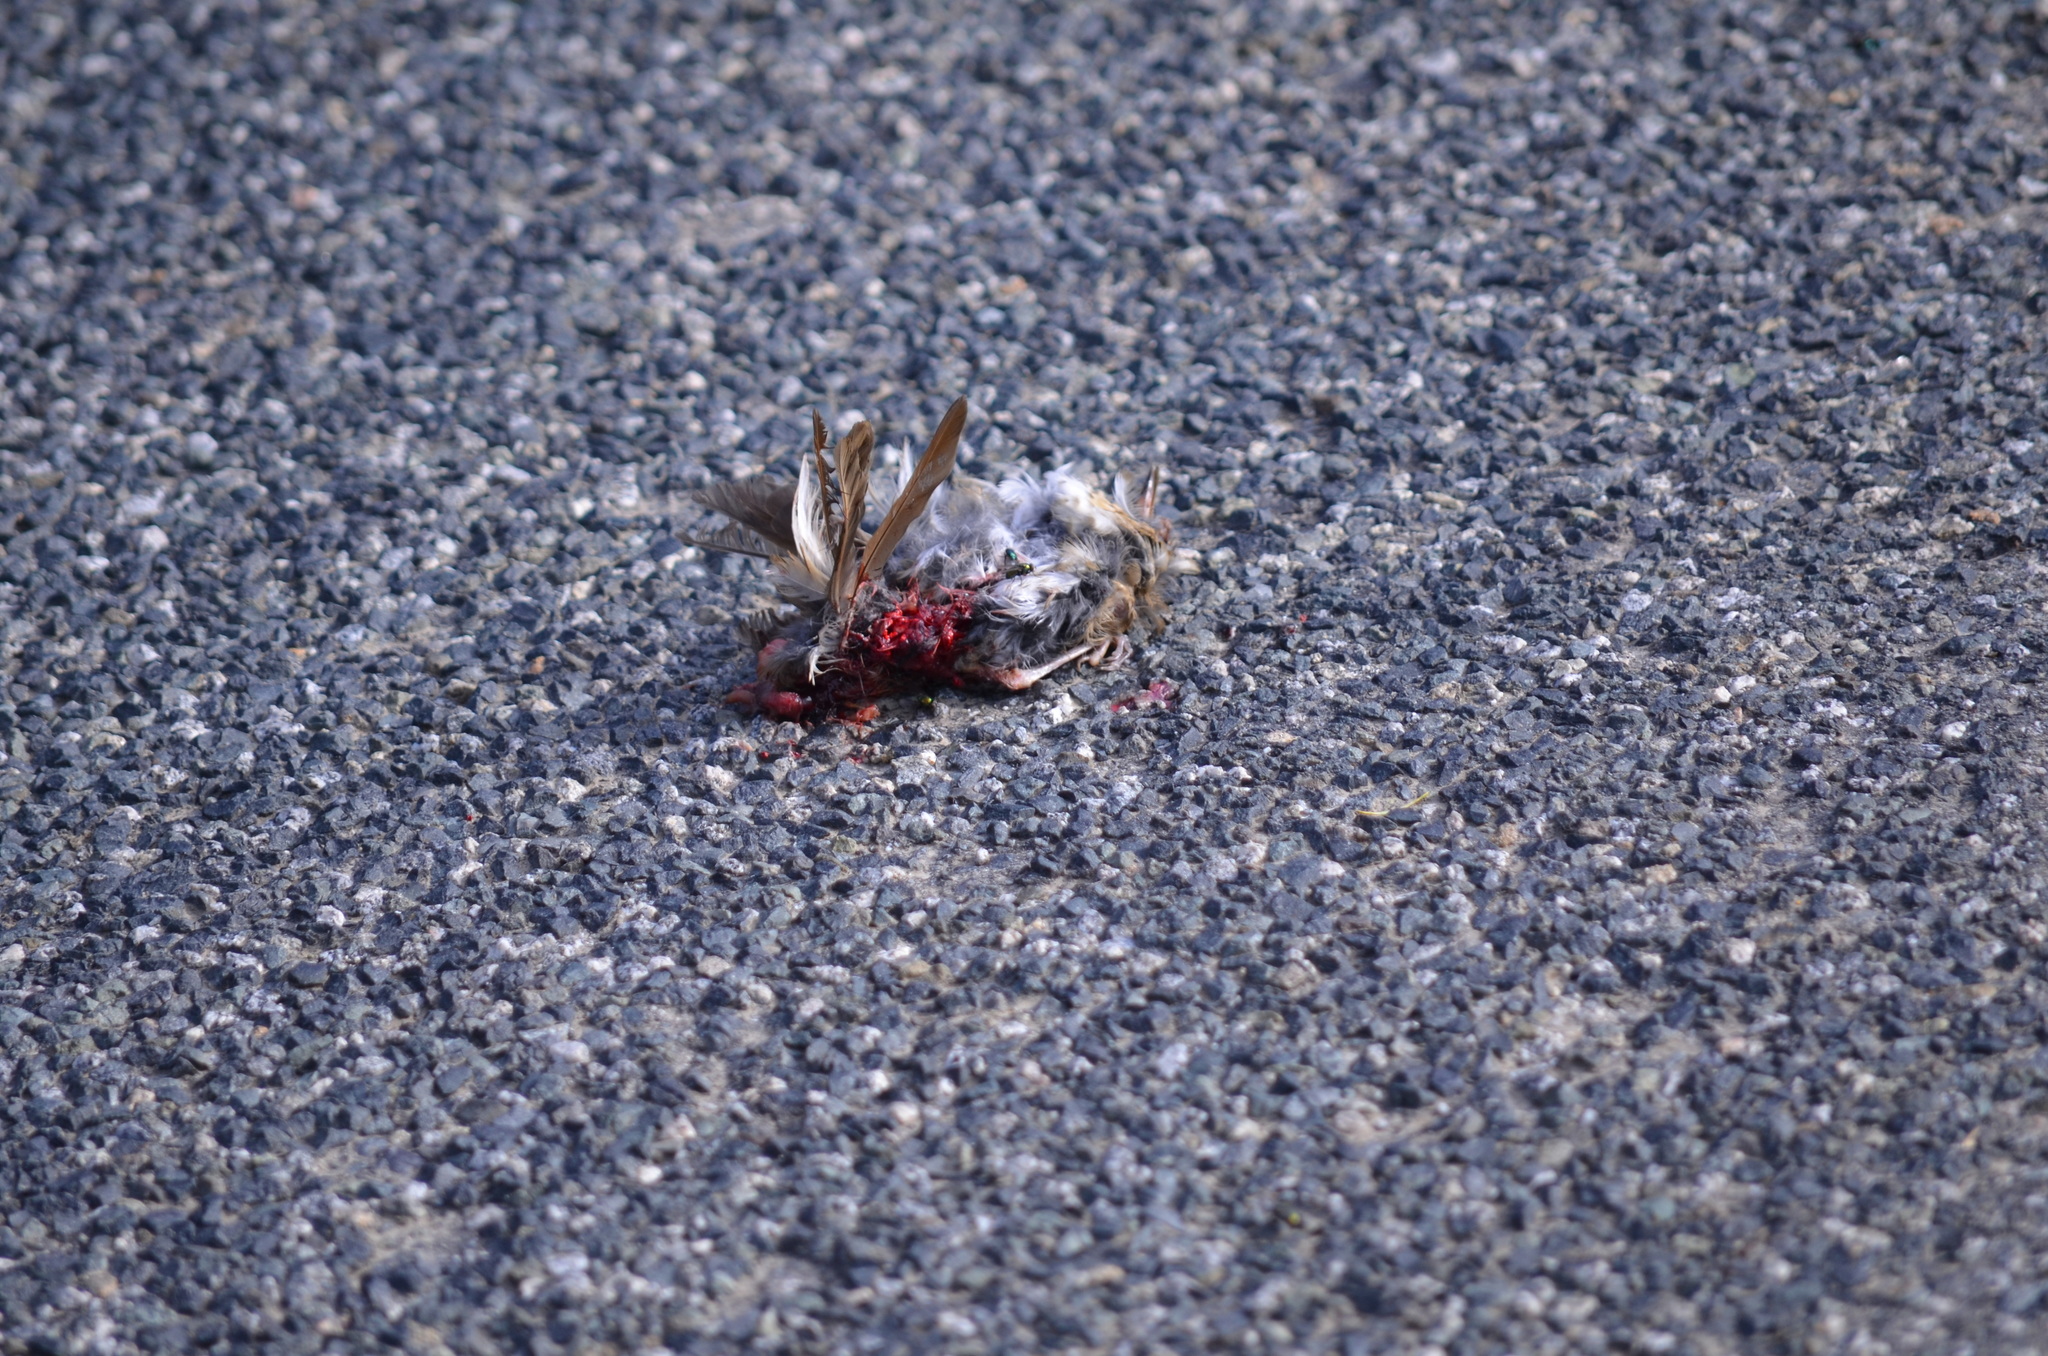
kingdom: Animalia
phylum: Chordata
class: Aves
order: Passeriformes
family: Passeridae
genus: Passer
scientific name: Passer domesticus
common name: House sparrow
